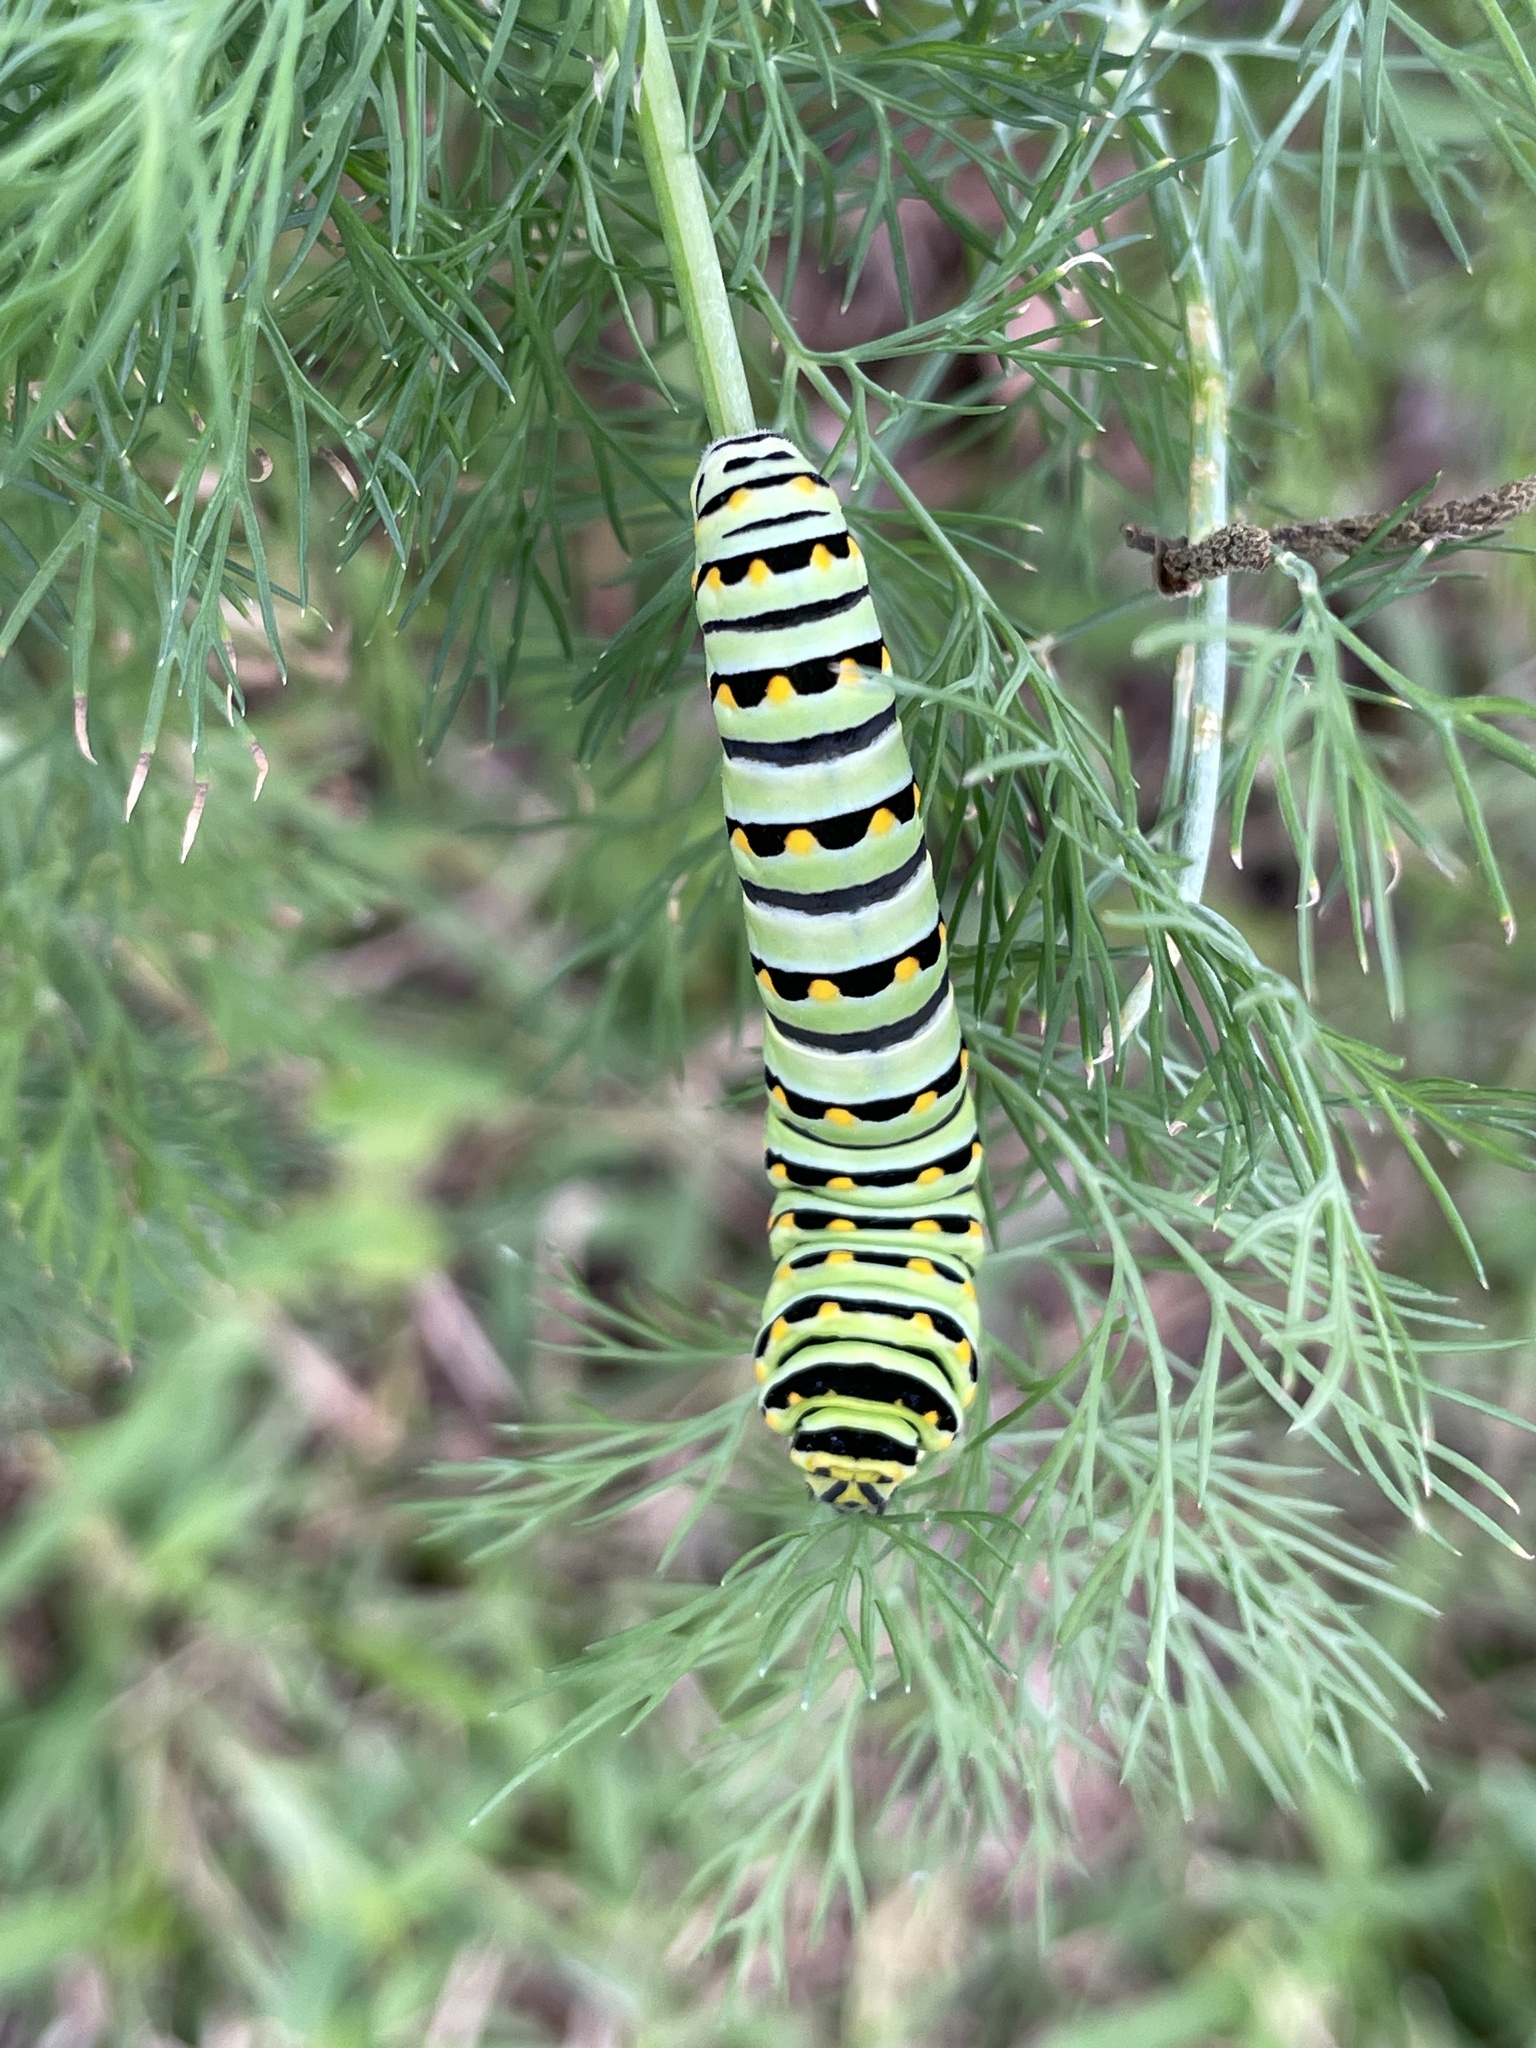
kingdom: Animalia
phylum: Arthropoda
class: Insecta
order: Lepidoptera
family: Papilionidae
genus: Papilio
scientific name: Papilio polyxenes
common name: Black swallowtail
